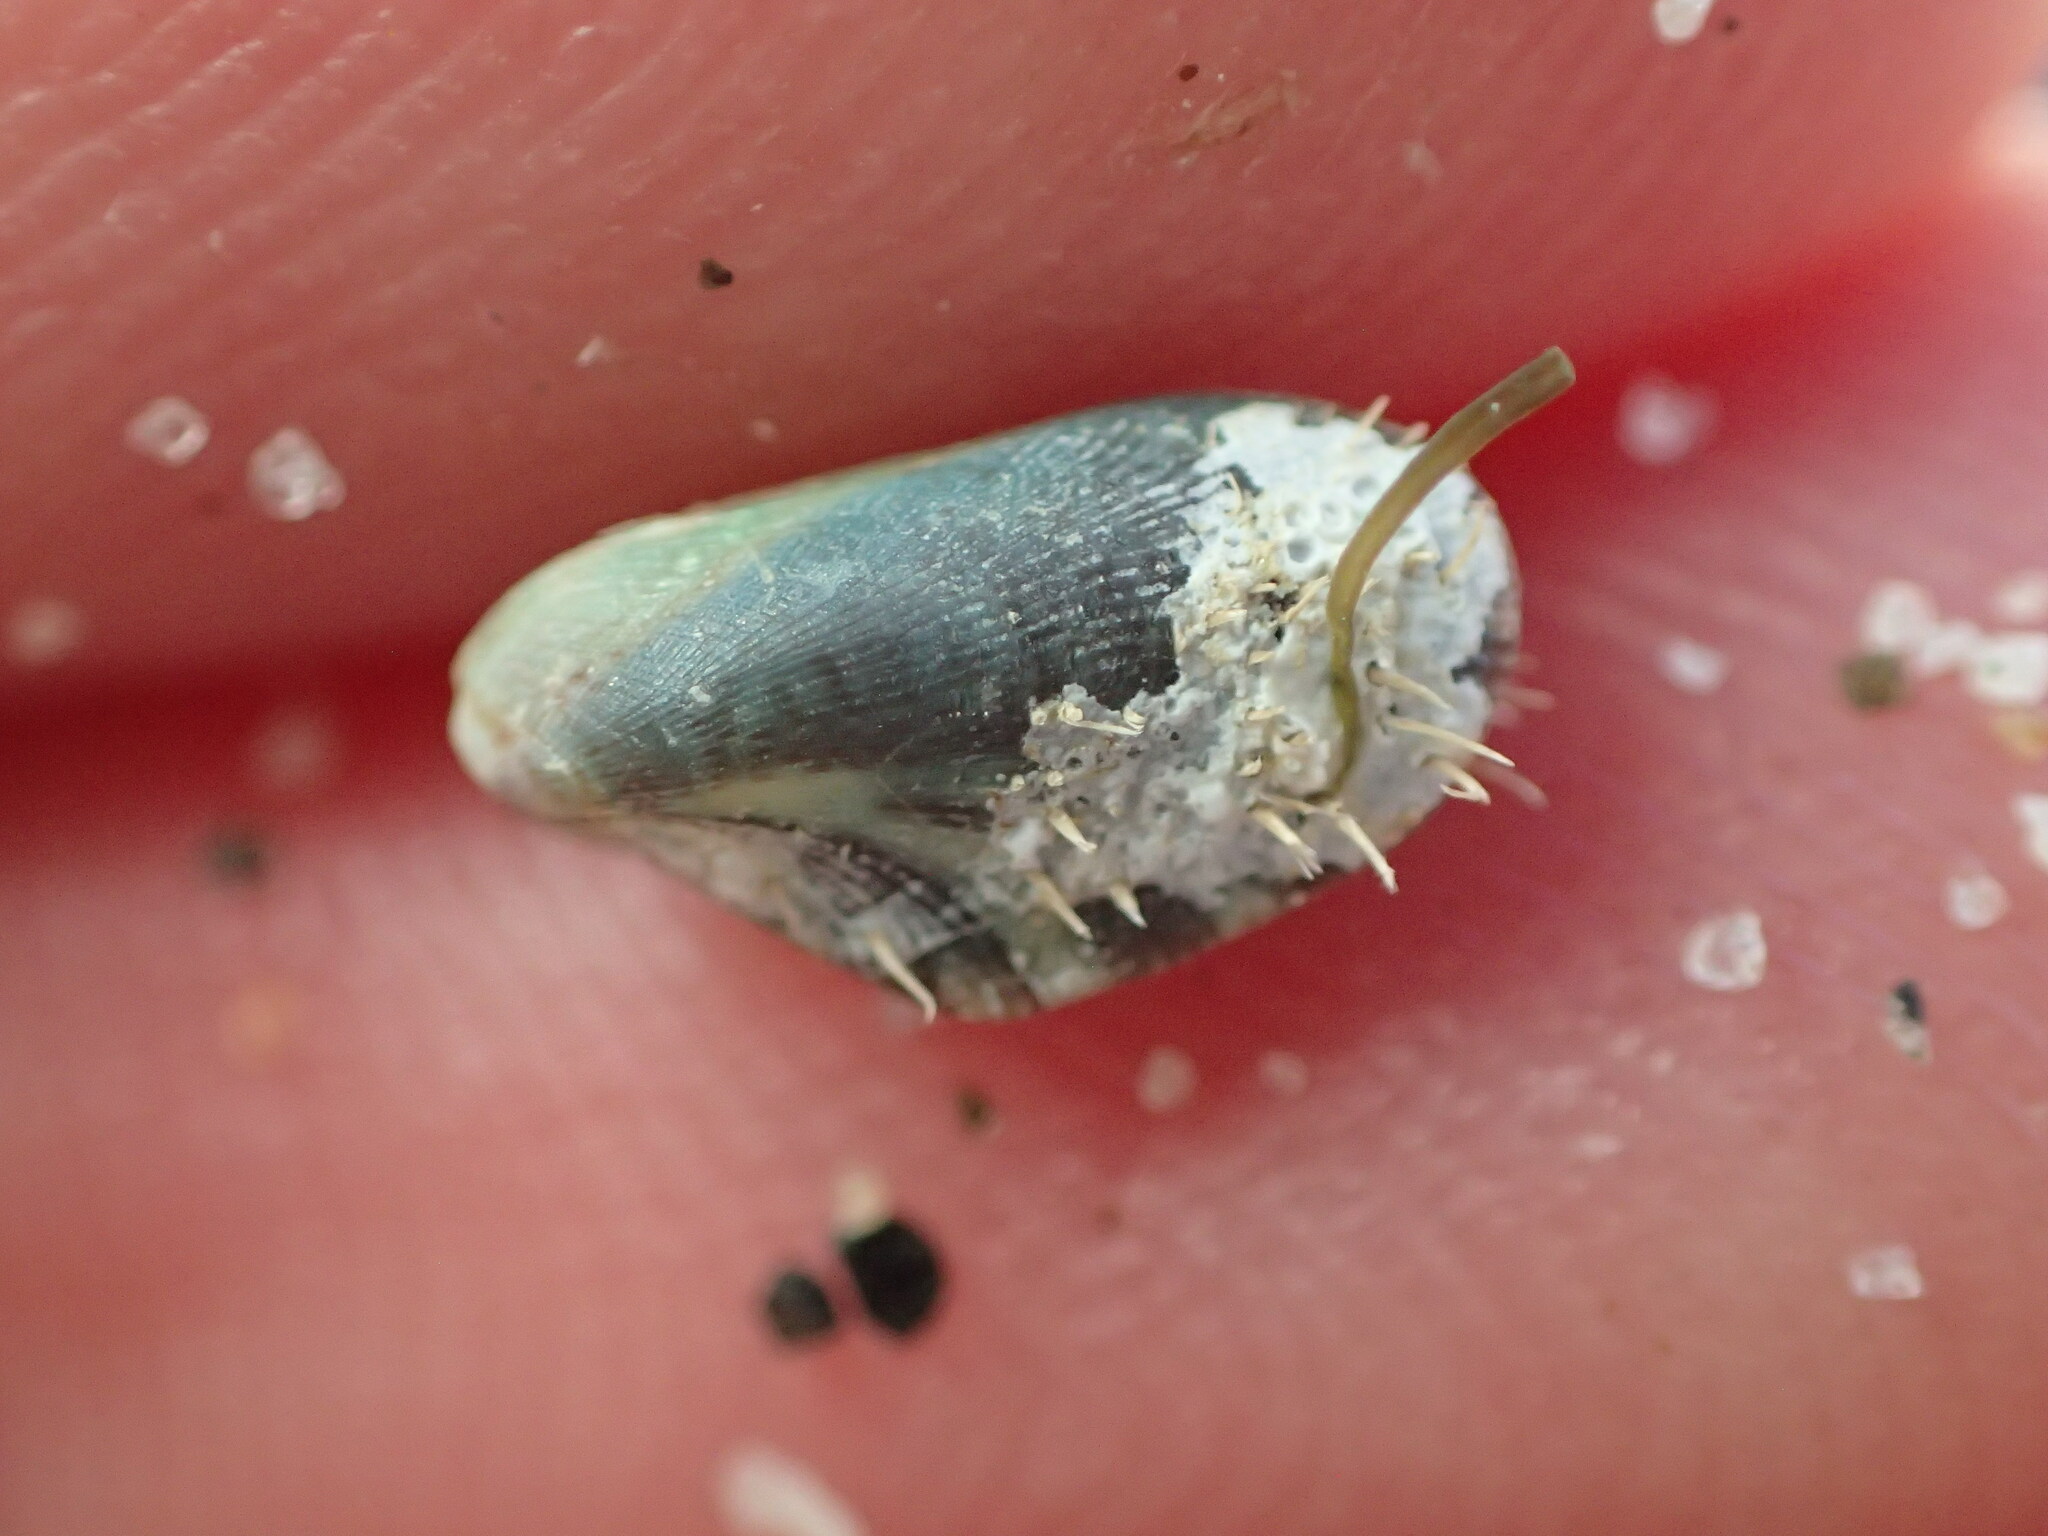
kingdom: Animalia
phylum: Mollusca
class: Bivalvia
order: Mytilida
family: Mytilidae
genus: Brachidontes
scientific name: Brachidontes adamsianus
